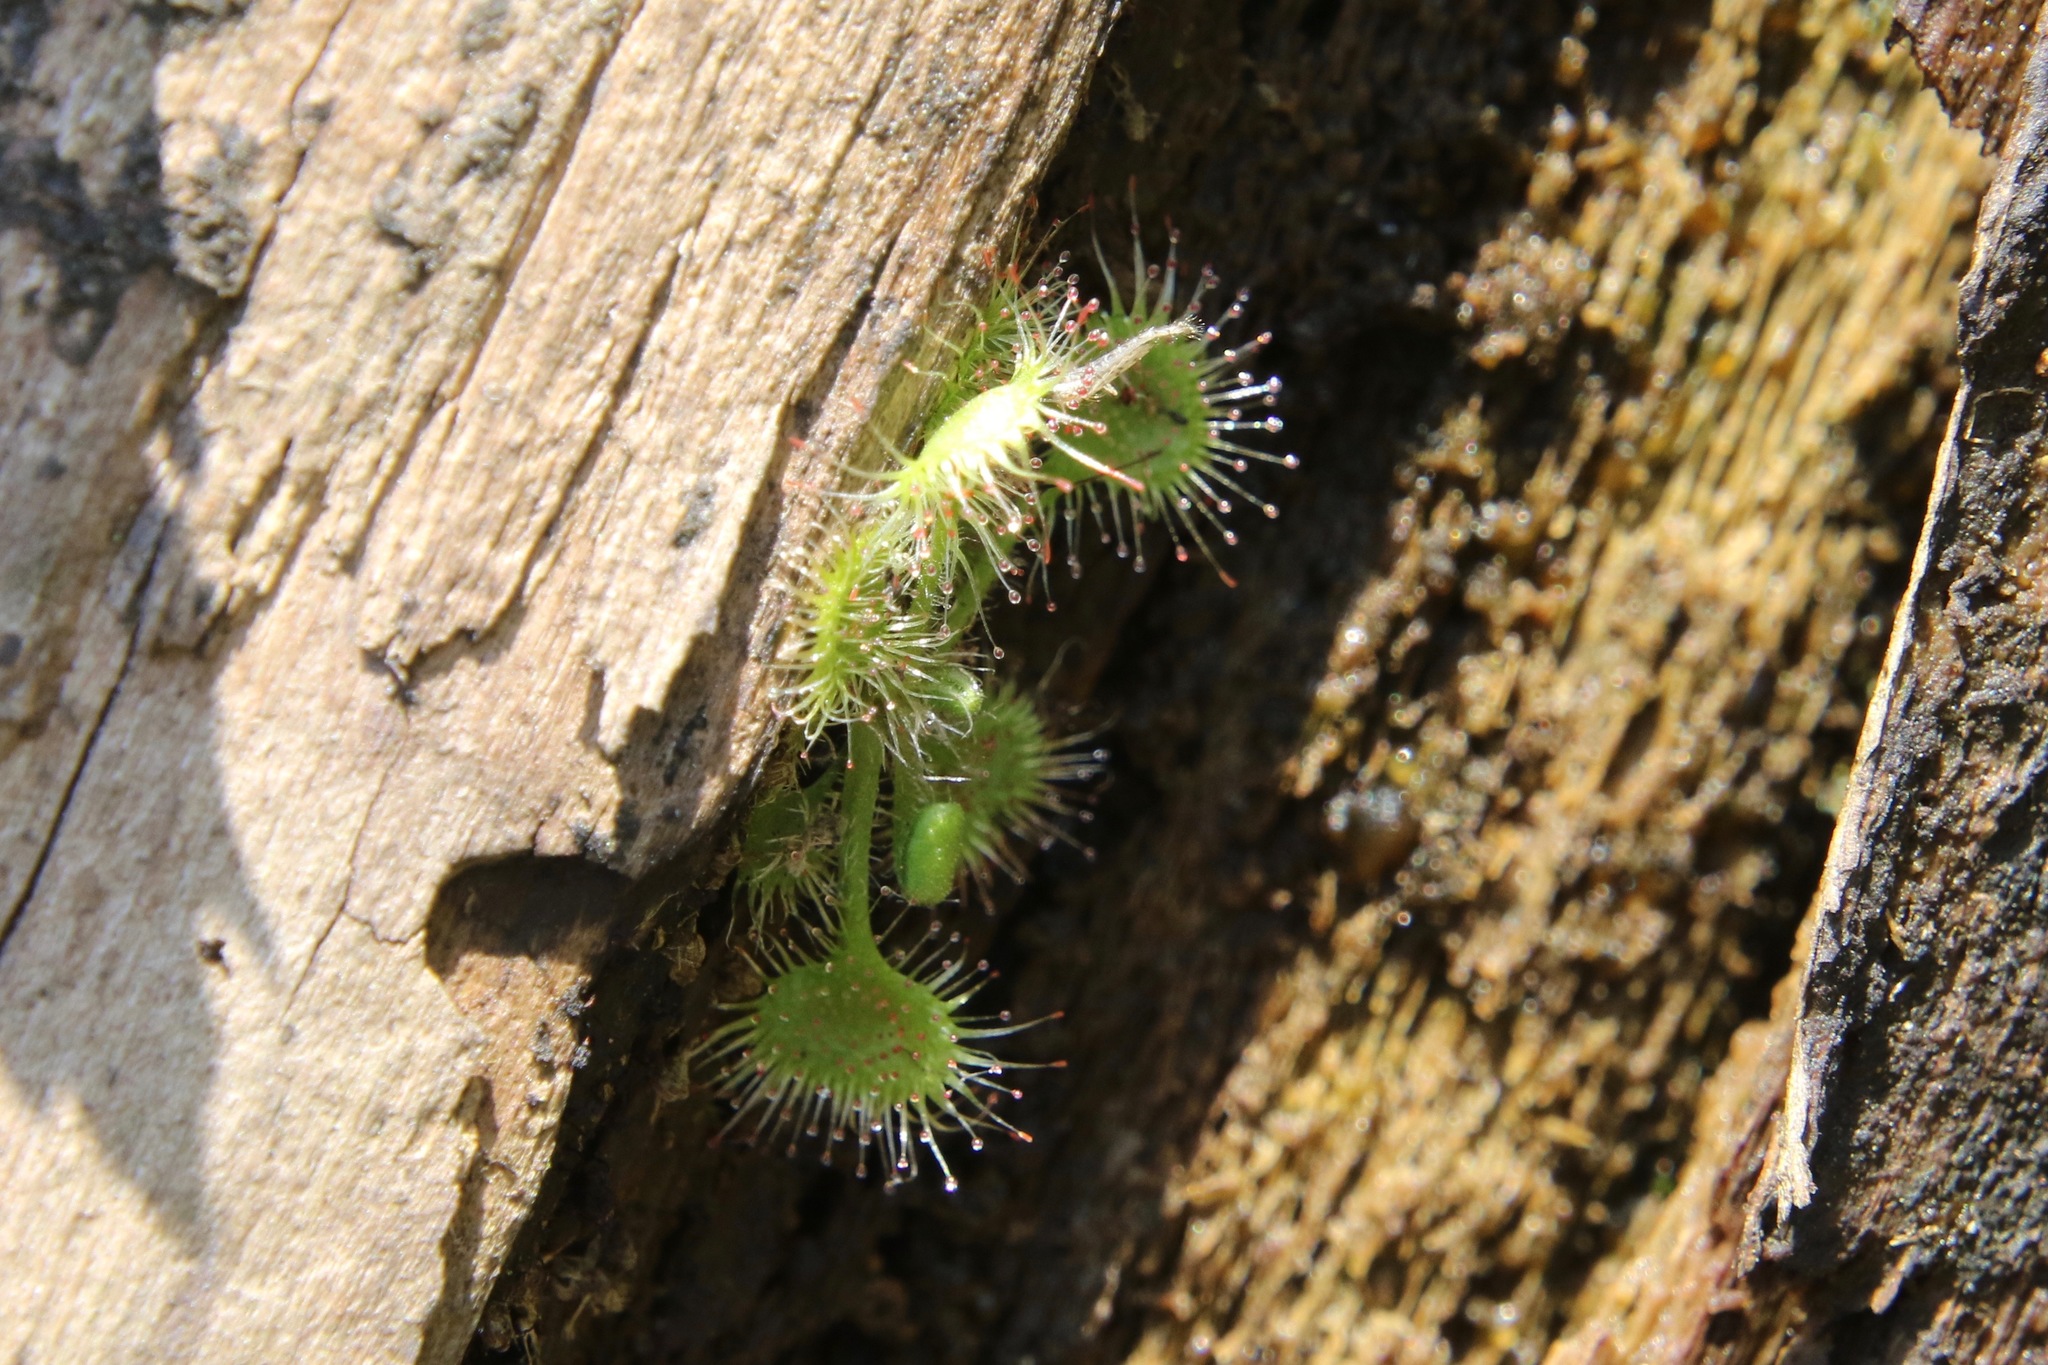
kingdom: Plantae
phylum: Tracheophyta
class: Magnoliopsida
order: Caryophyllales
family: Droseraceae
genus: Drosera
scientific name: Drosera rotundifolia
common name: Round-leaved sundew
